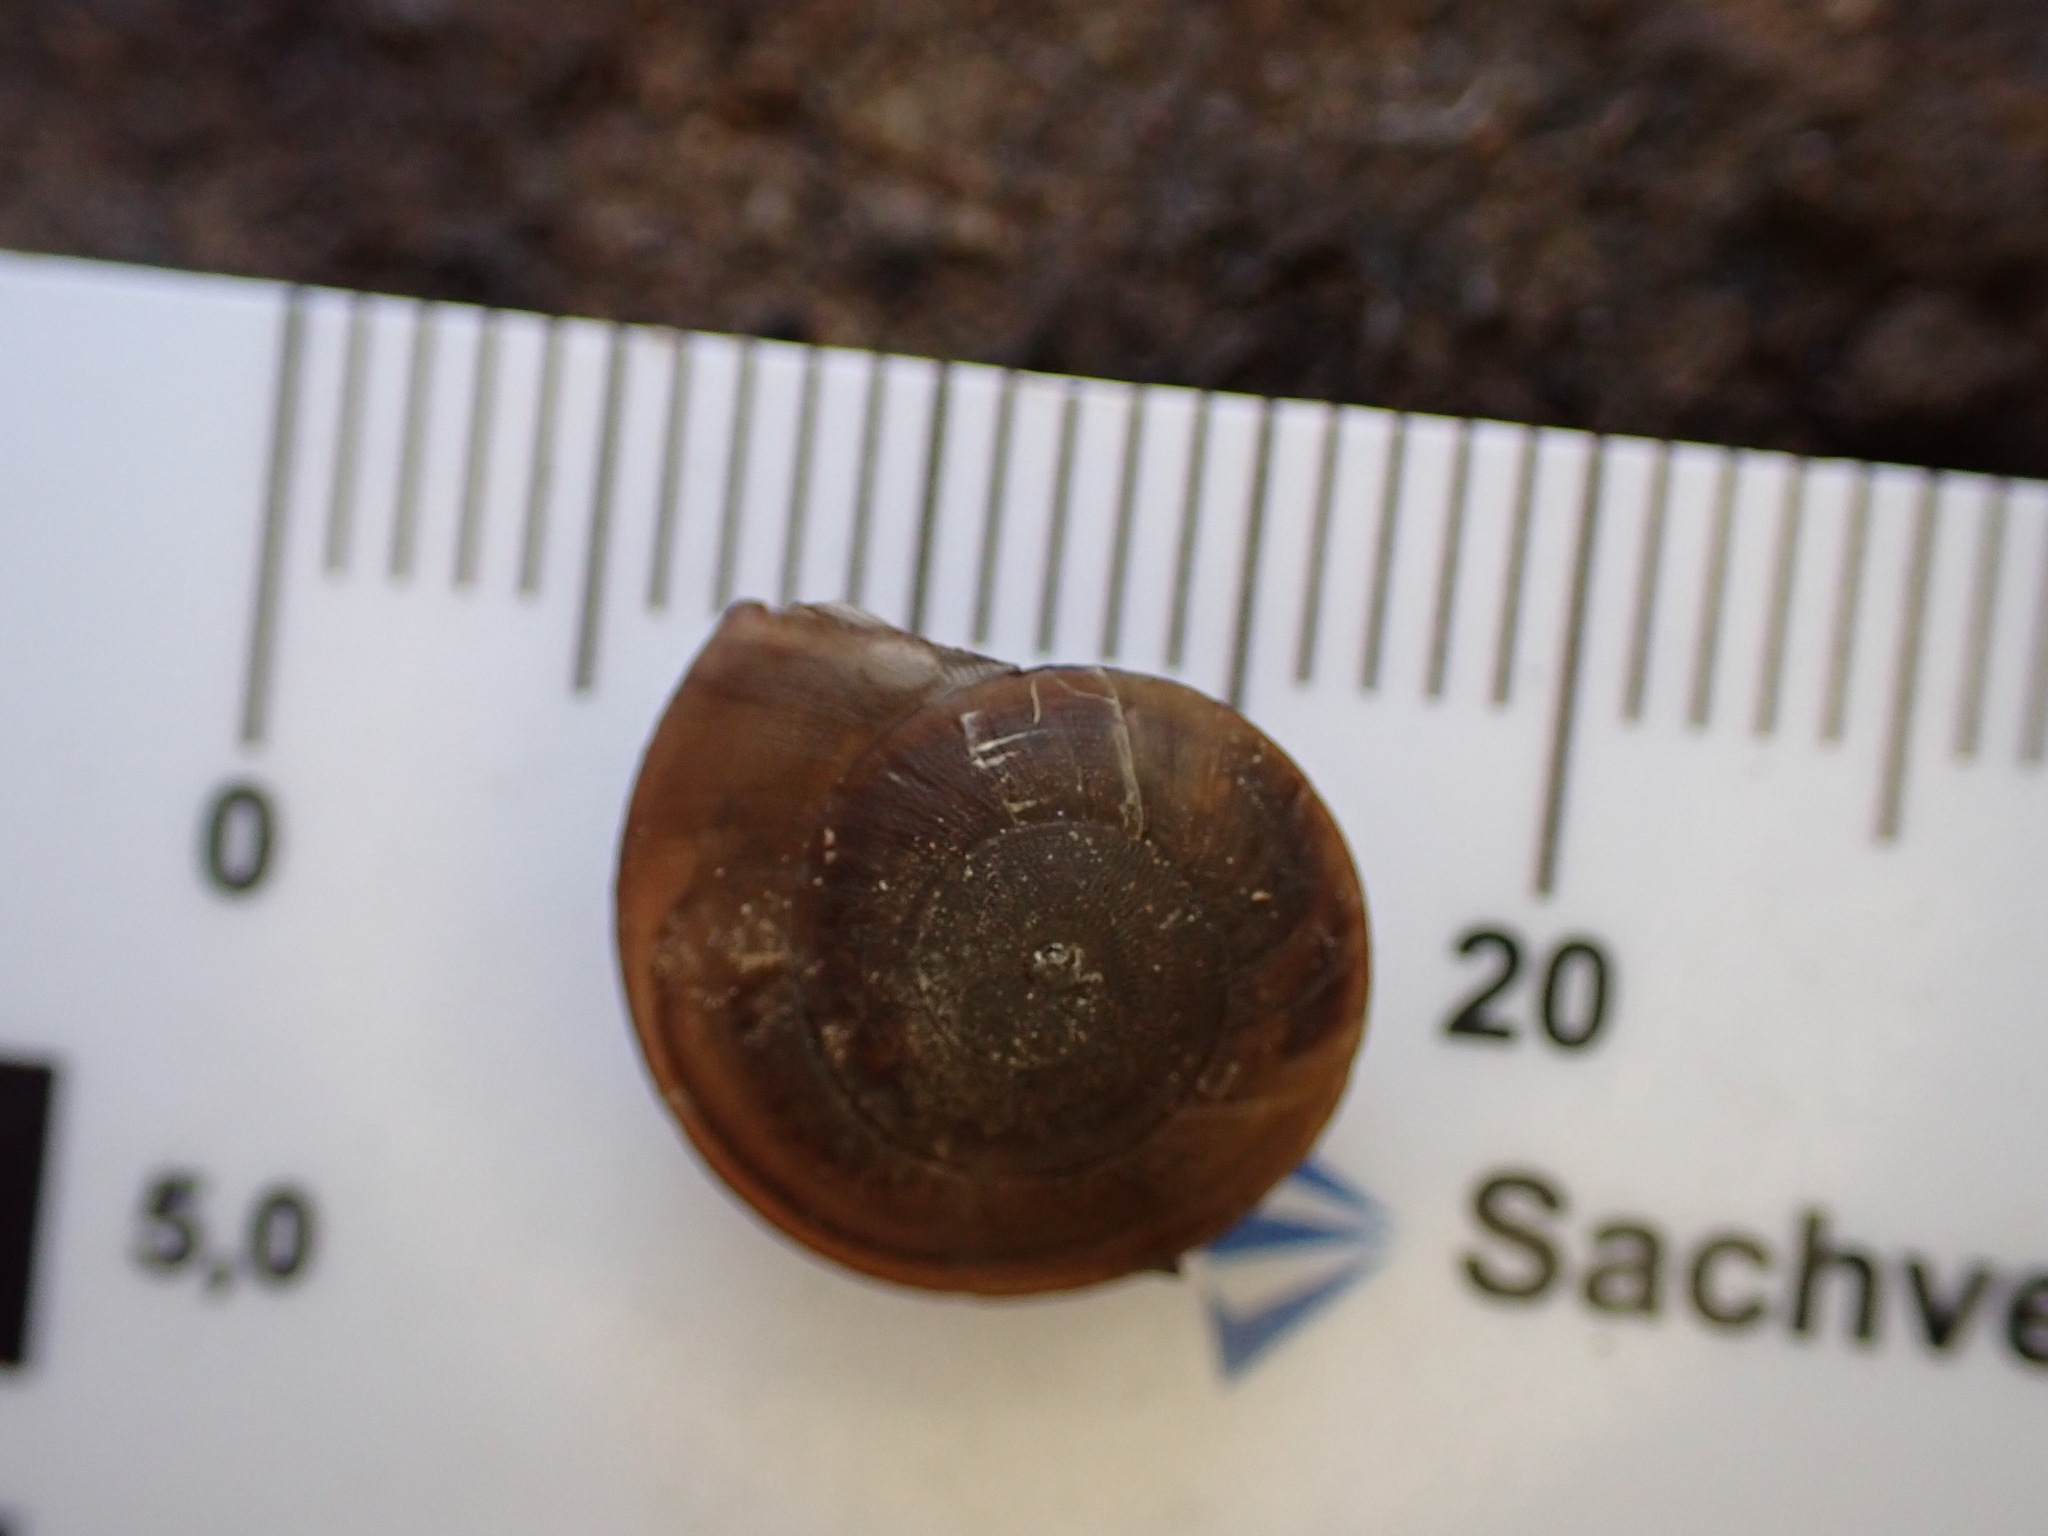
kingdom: Animalia
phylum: Mollusca
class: Gastropoda
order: Stylommatophora
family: Zonitidae
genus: Zonites
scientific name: Zonites algirus
